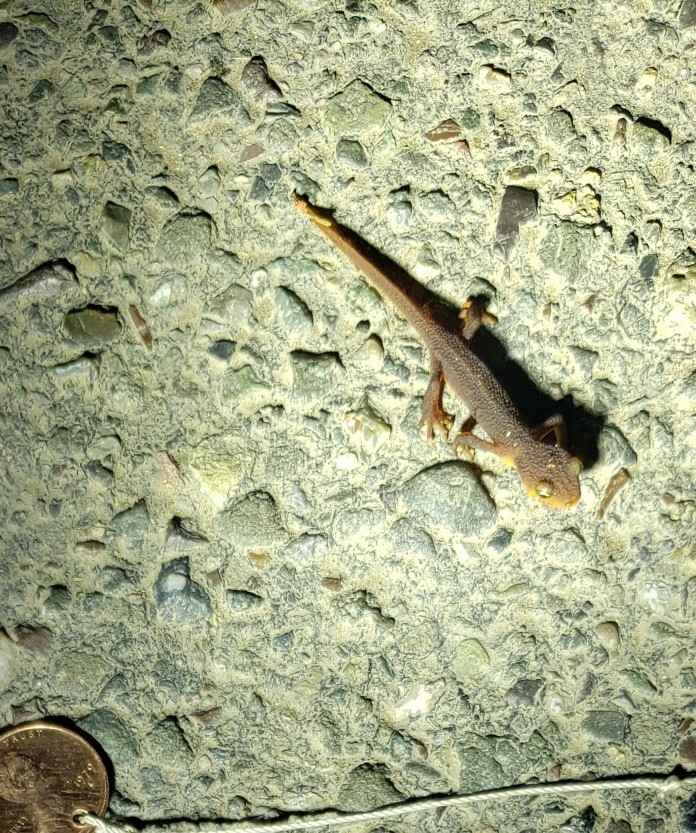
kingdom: Animalia
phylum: Chordata
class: Amphibia
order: Caudata
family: Salamandridae
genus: Taricha
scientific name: Taricha torosa
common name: California newt
